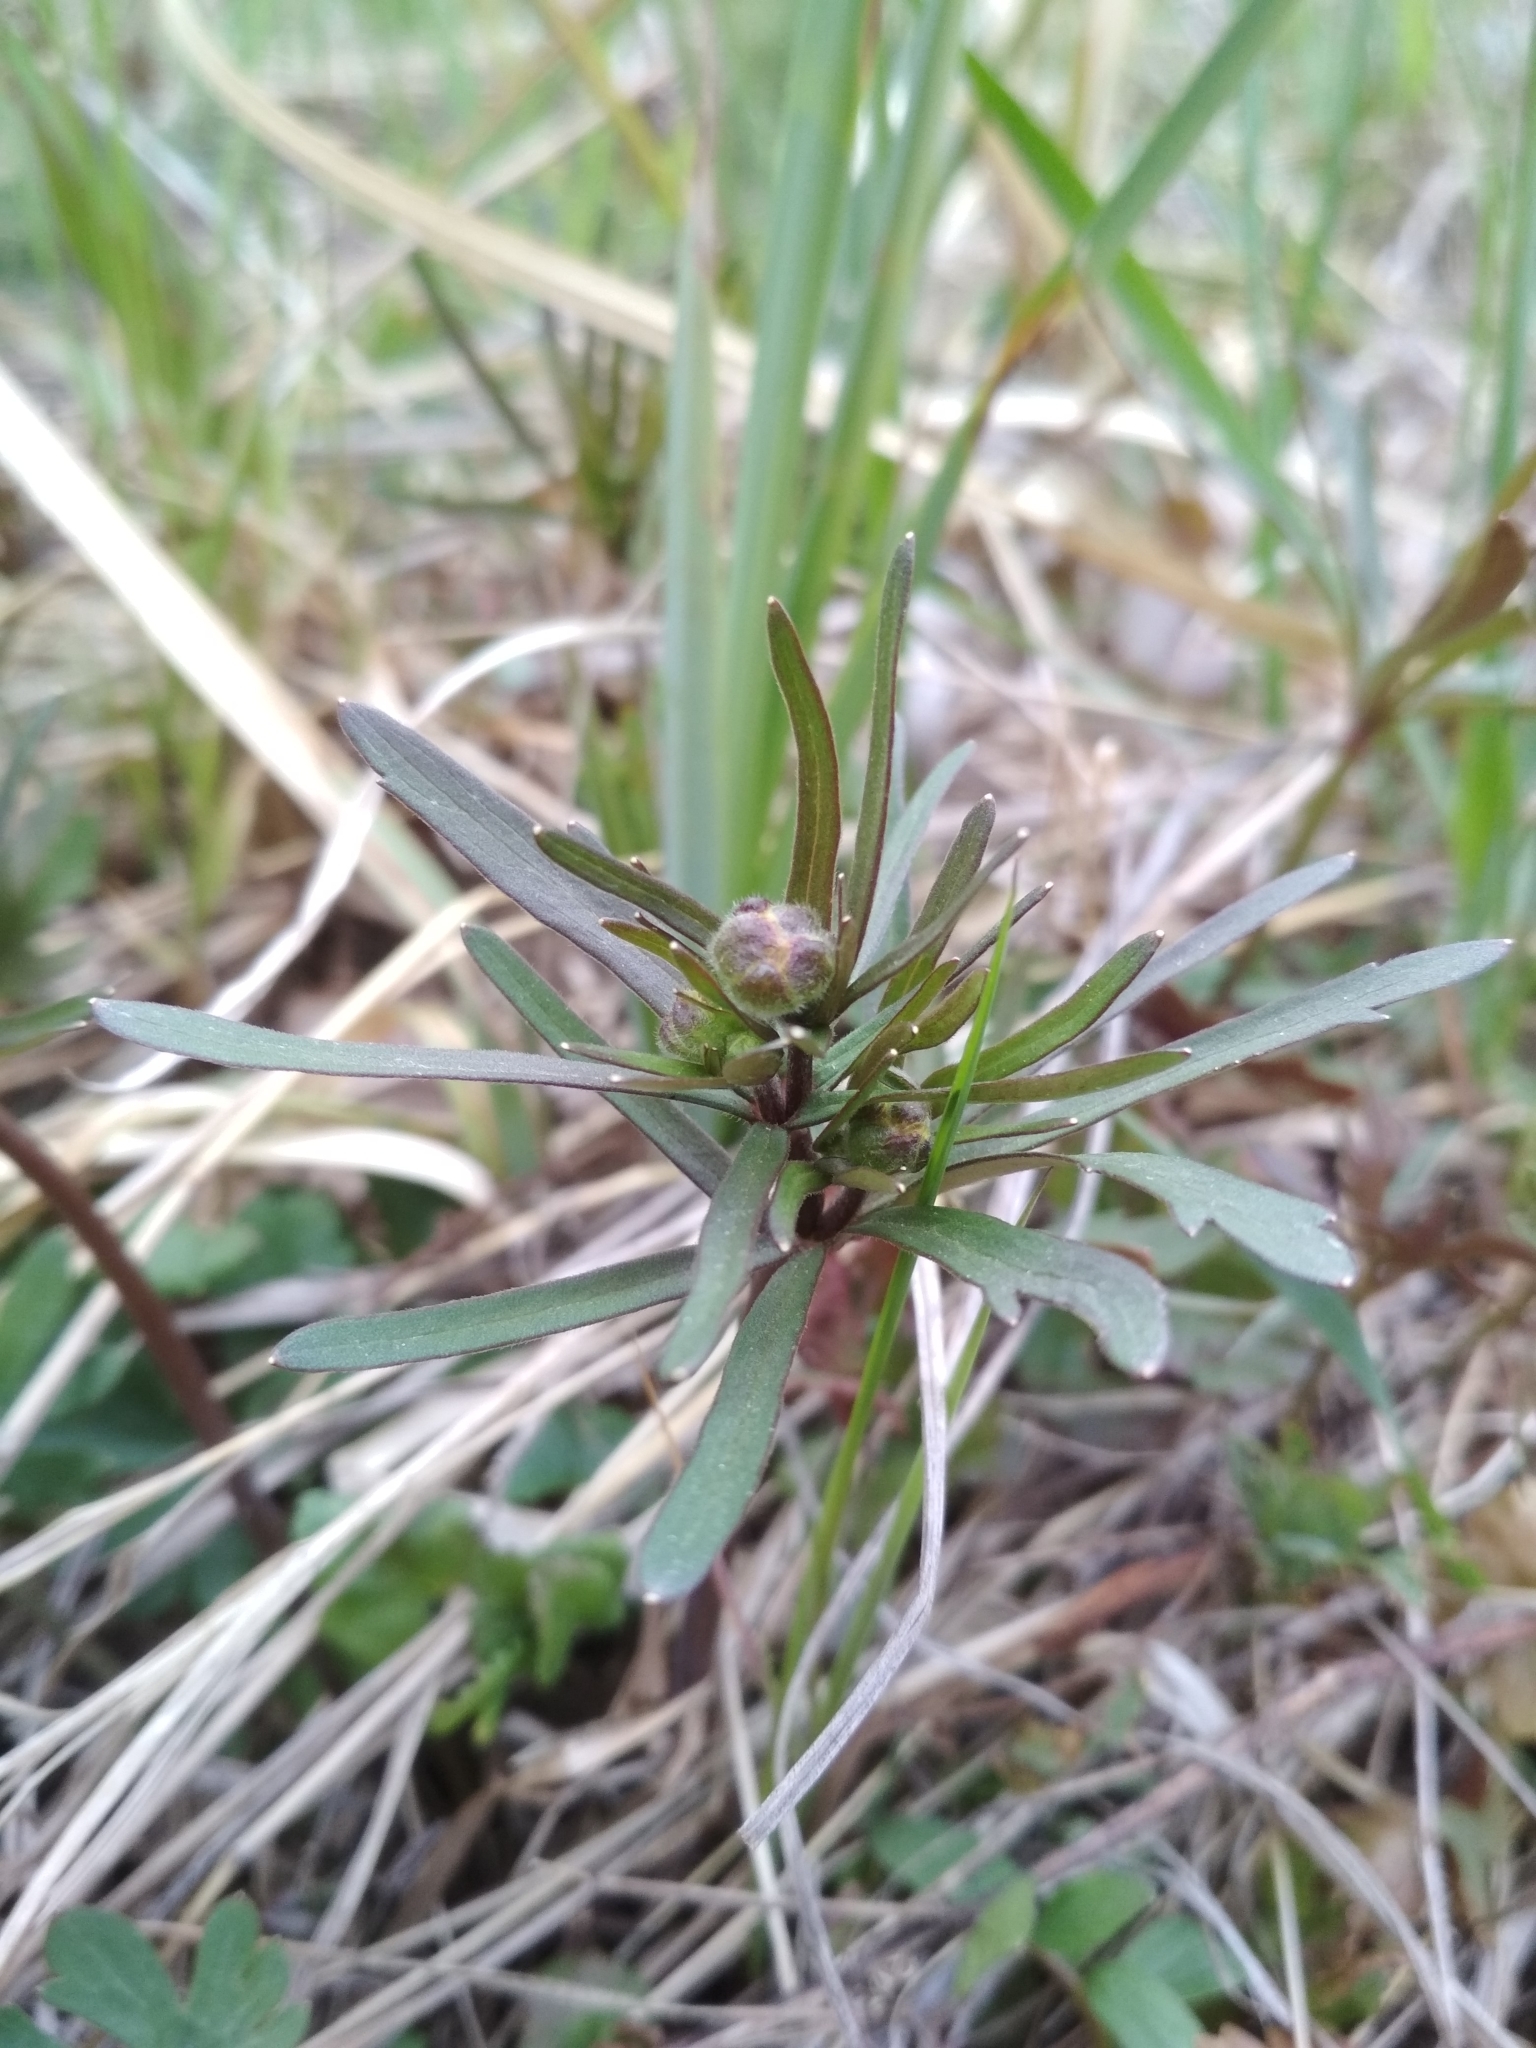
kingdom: Plantae
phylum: Tracheophyta
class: Magnoliopsida
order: Ranunculales
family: Ranunculaceae
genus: Ranunculus
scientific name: Ranunculus auricomus
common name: Goldilocks buttercup
